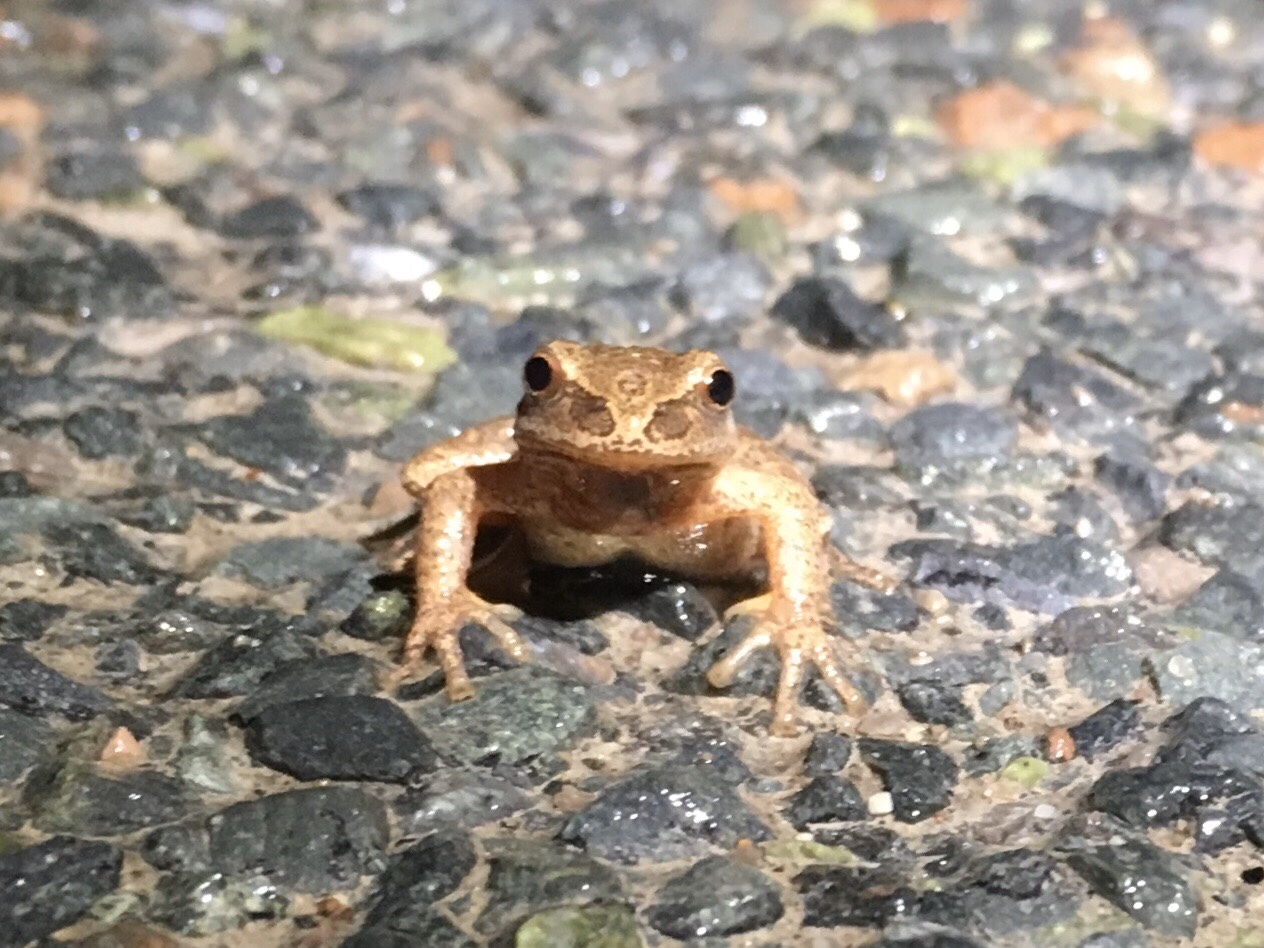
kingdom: Animalia
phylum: Chordata
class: Amphibia
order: Anura
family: Hylidae
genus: Pseudacris
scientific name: Pseudacris crucifer
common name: Spring peeper
